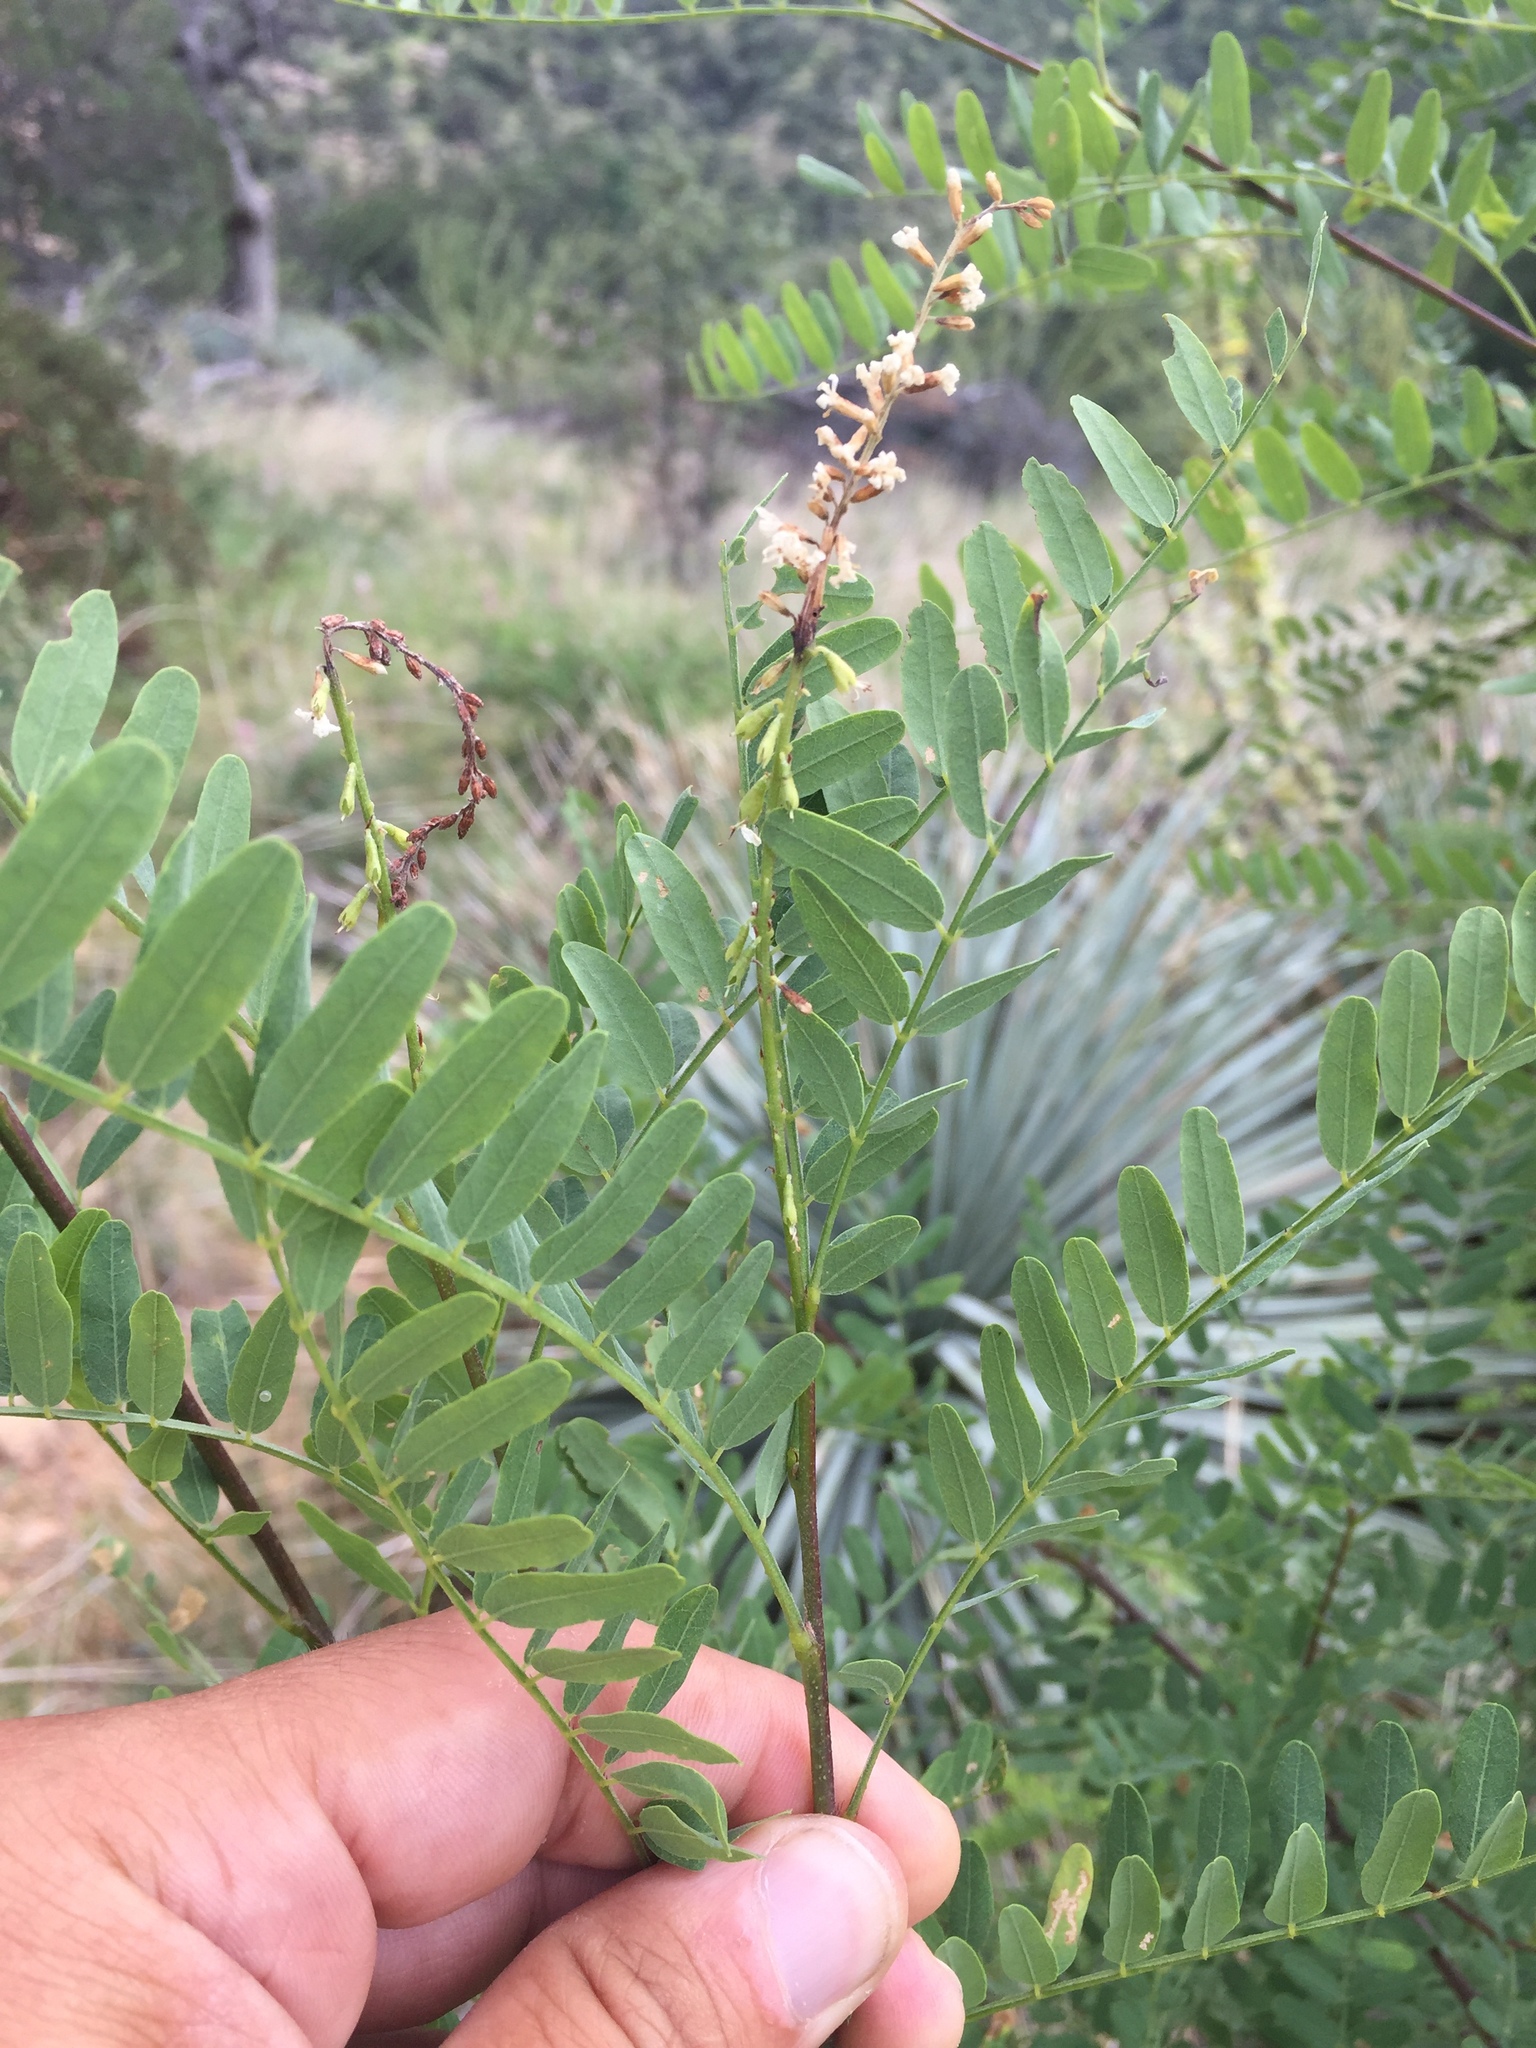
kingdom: Plantae
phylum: Tracheophyta
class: Magnoliopsida
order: Fabales
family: Fabaceae
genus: Eysenhardtia
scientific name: Eysenhardtia orthocarpa
